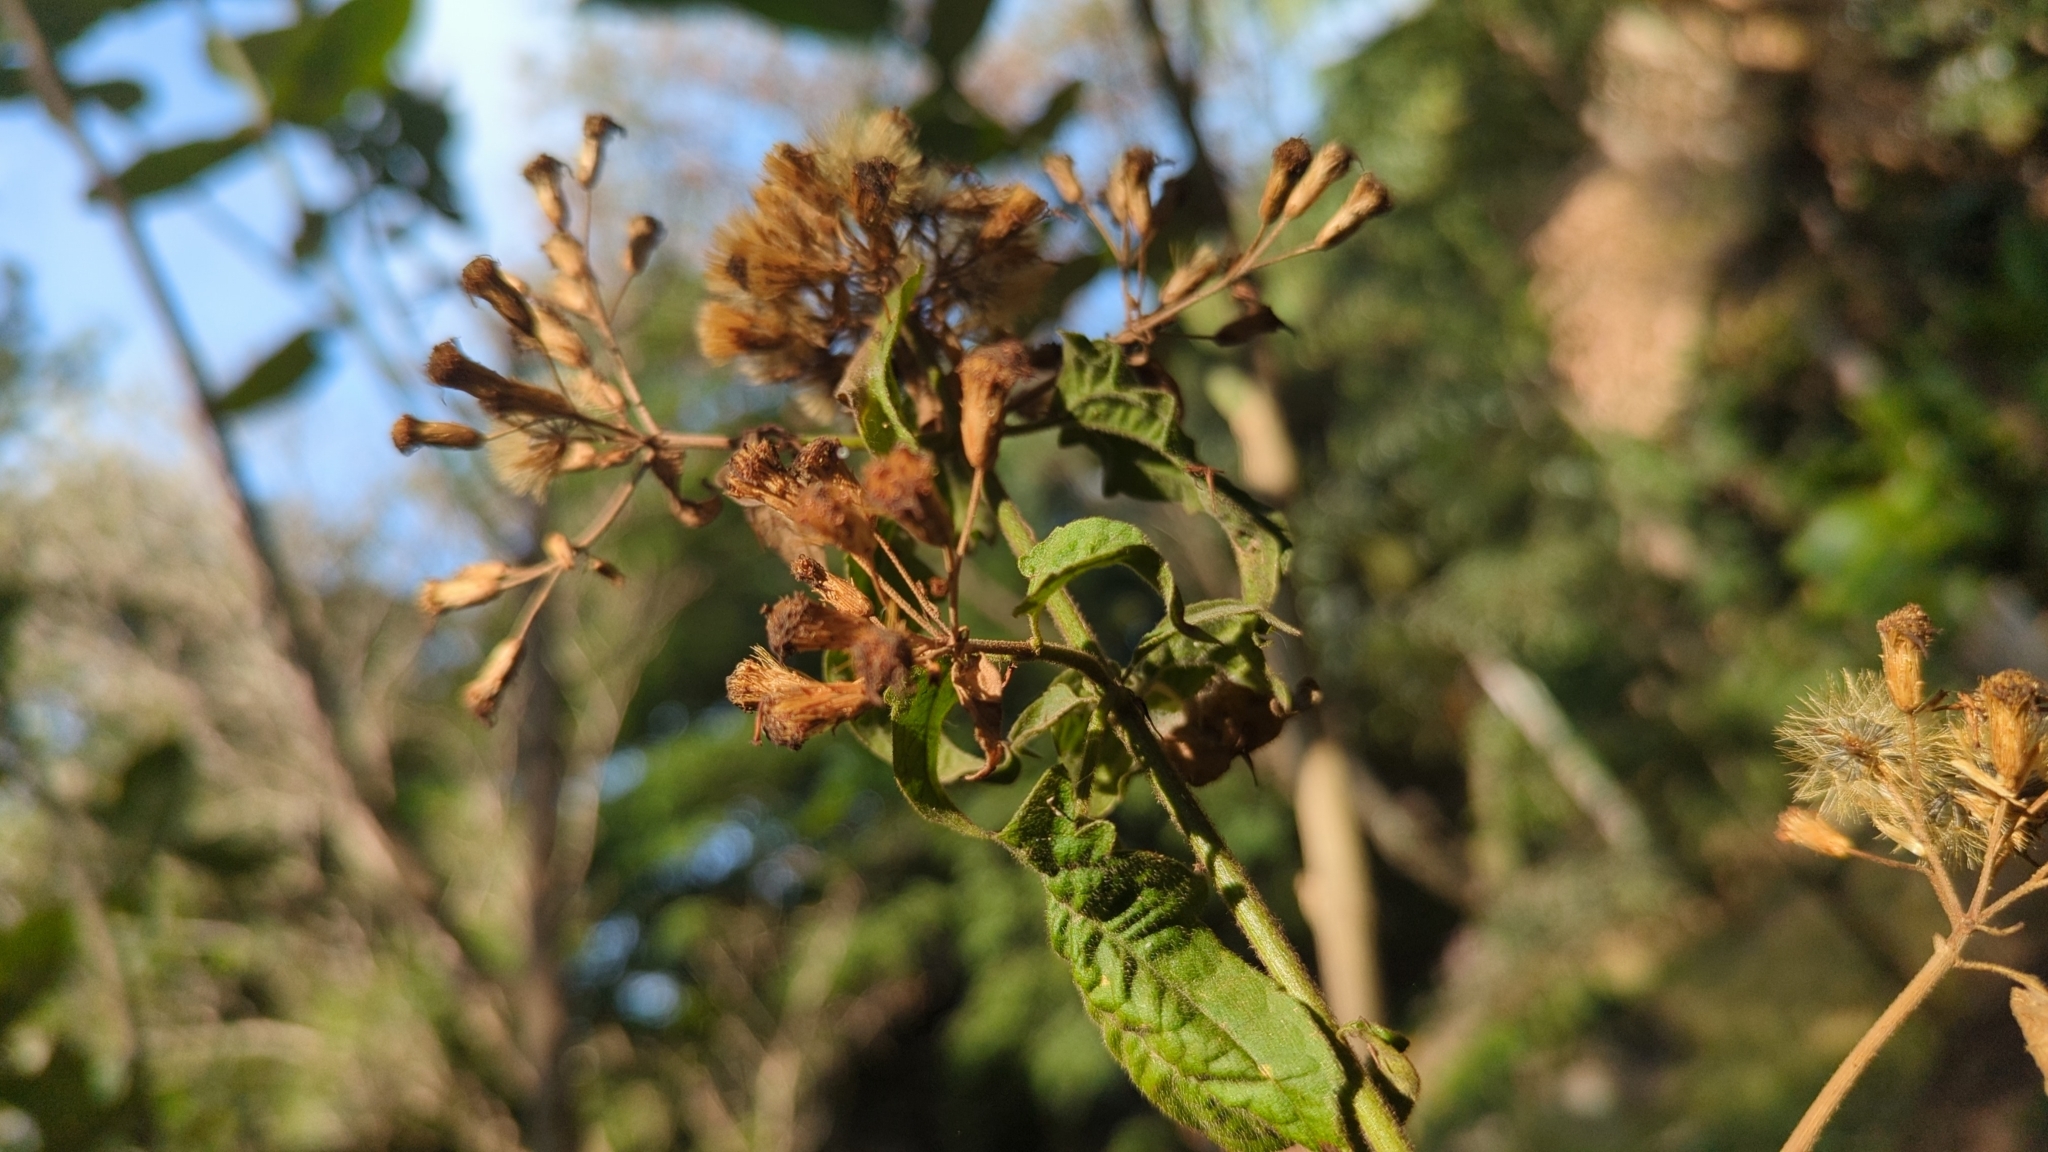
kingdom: Plantae
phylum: Tracheophyta
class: Magnoliopsida
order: Asterales
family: Asteraceae
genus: Chromolaena
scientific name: Chromolaena odorata
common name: Siamweed
